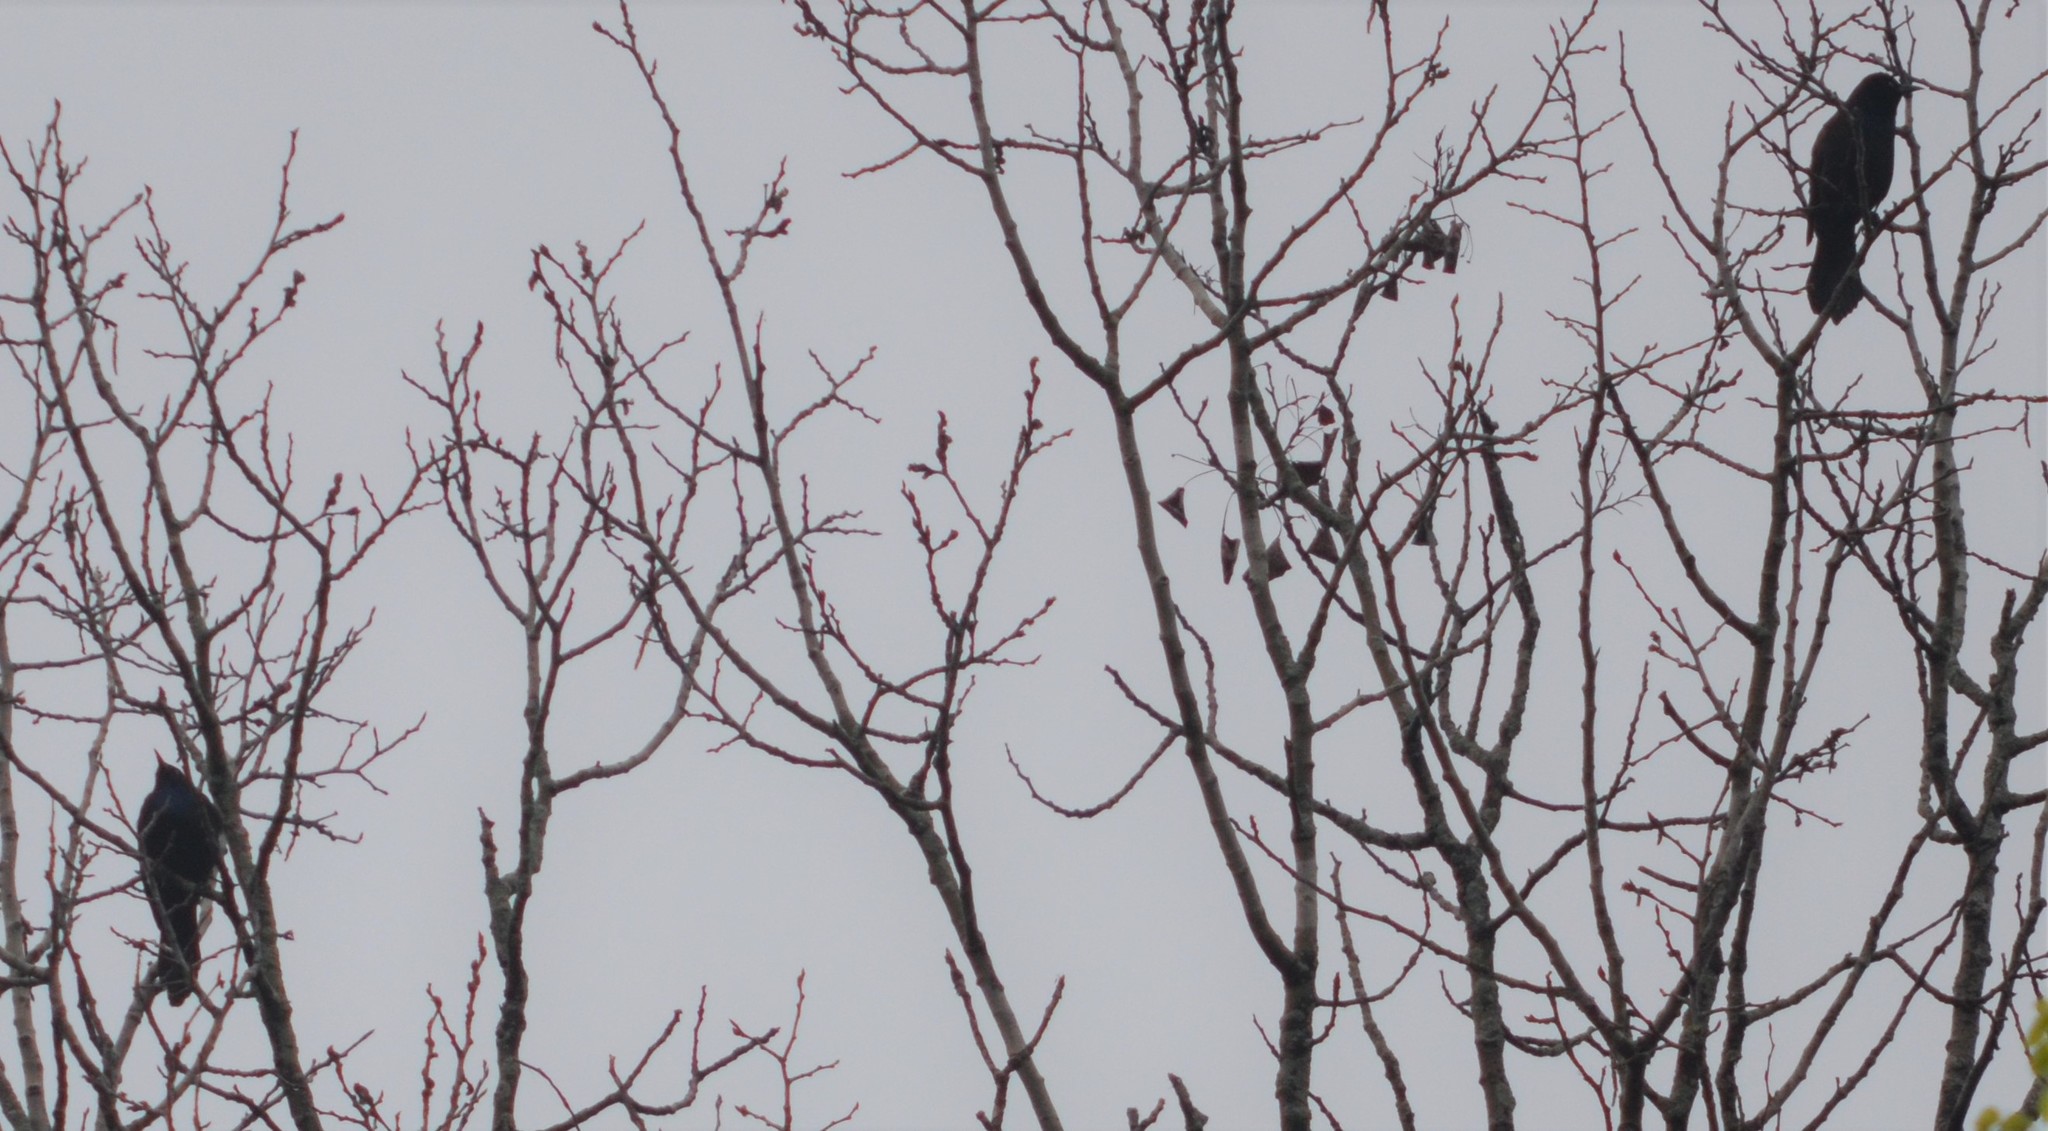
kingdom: Animalia
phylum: Chordata
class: Aves
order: Passeriformes
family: Icteridae
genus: Quiscalus
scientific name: Quiscalus quiscula
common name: Common grackle
